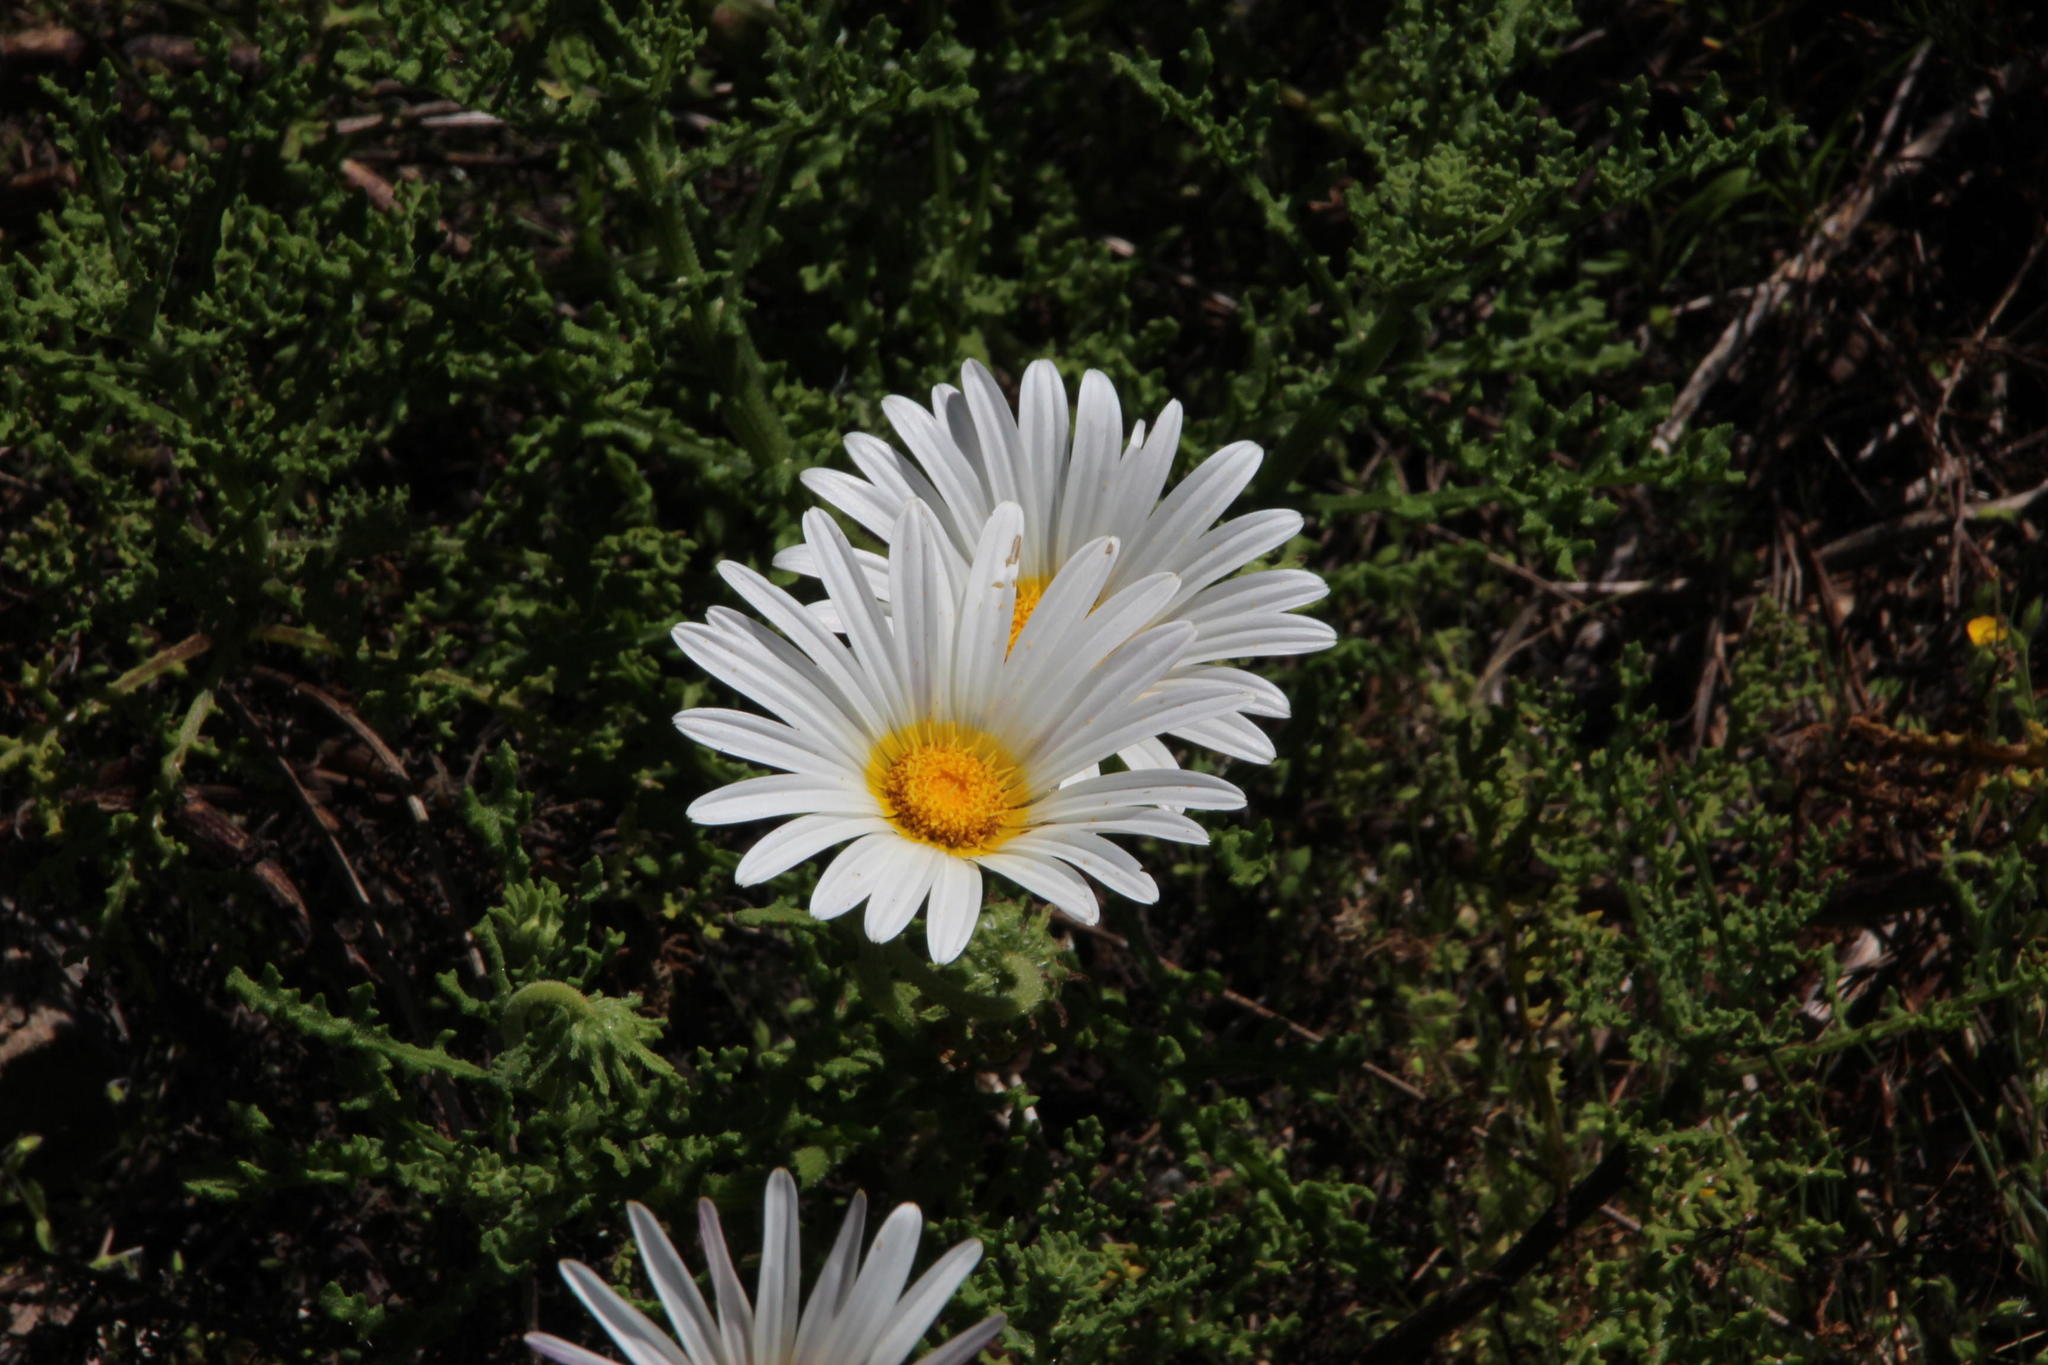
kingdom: Plantae
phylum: Tracheophyta
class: Magnoliopsida
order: Asterales
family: Asteraceae
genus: Arctotis
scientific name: Arctotis aspera
